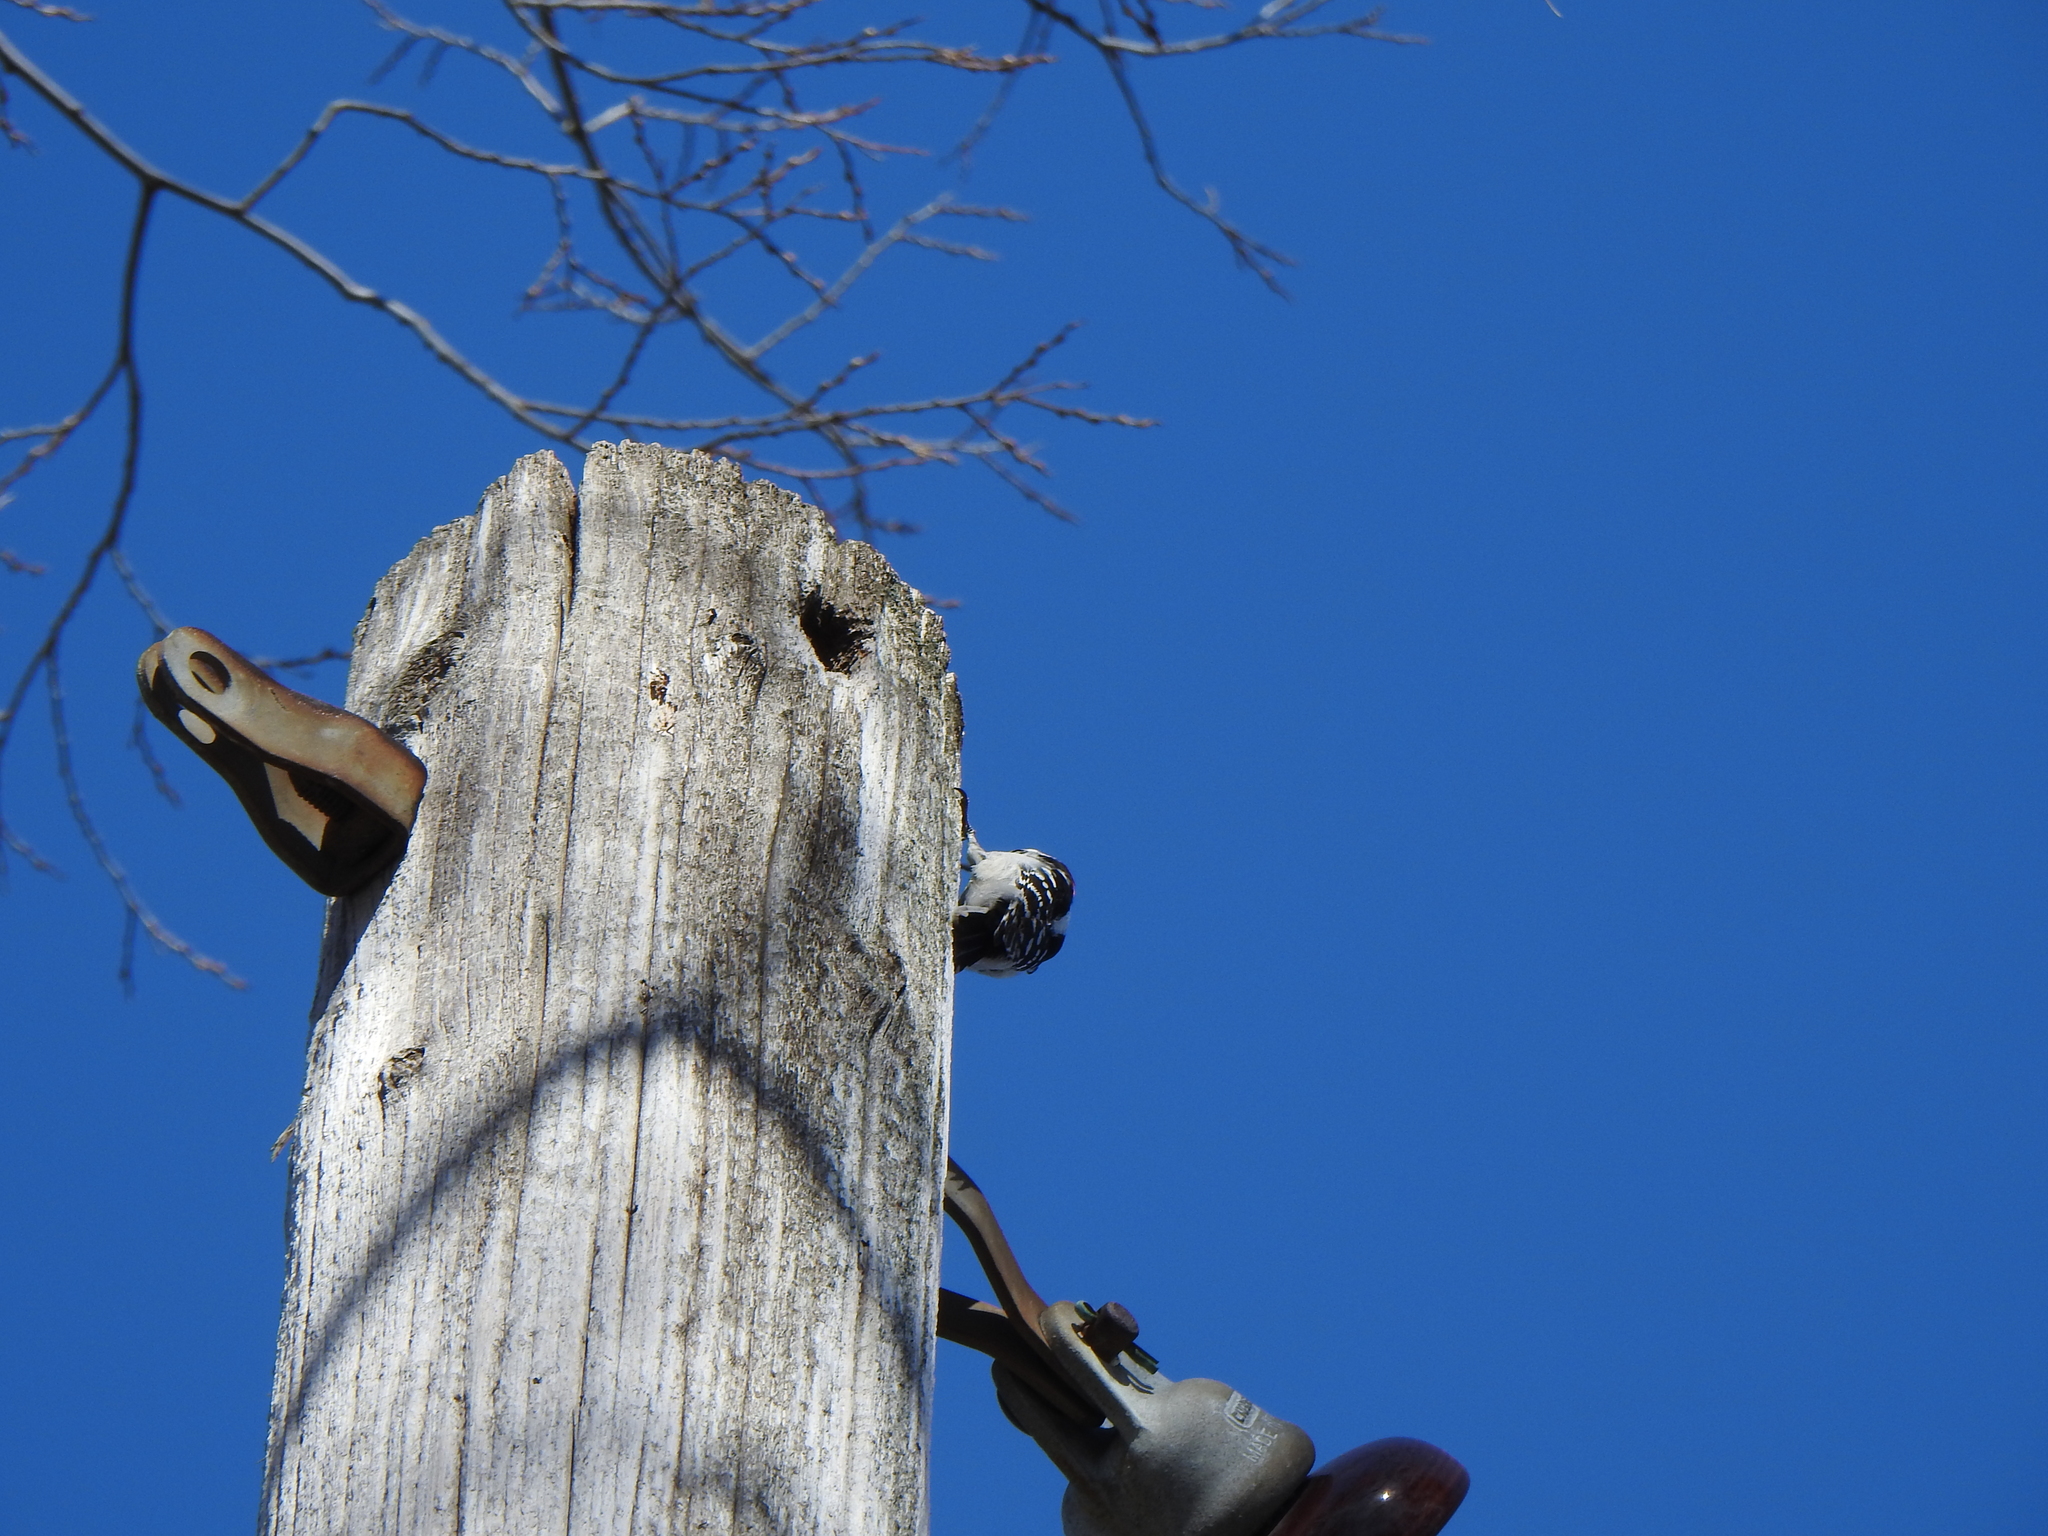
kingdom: Animalia
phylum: Chordata
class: Aves
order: Piciformes
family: Picidae
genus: Dryobates
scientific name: Dryobates pubescens
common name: Downy woodpecker
